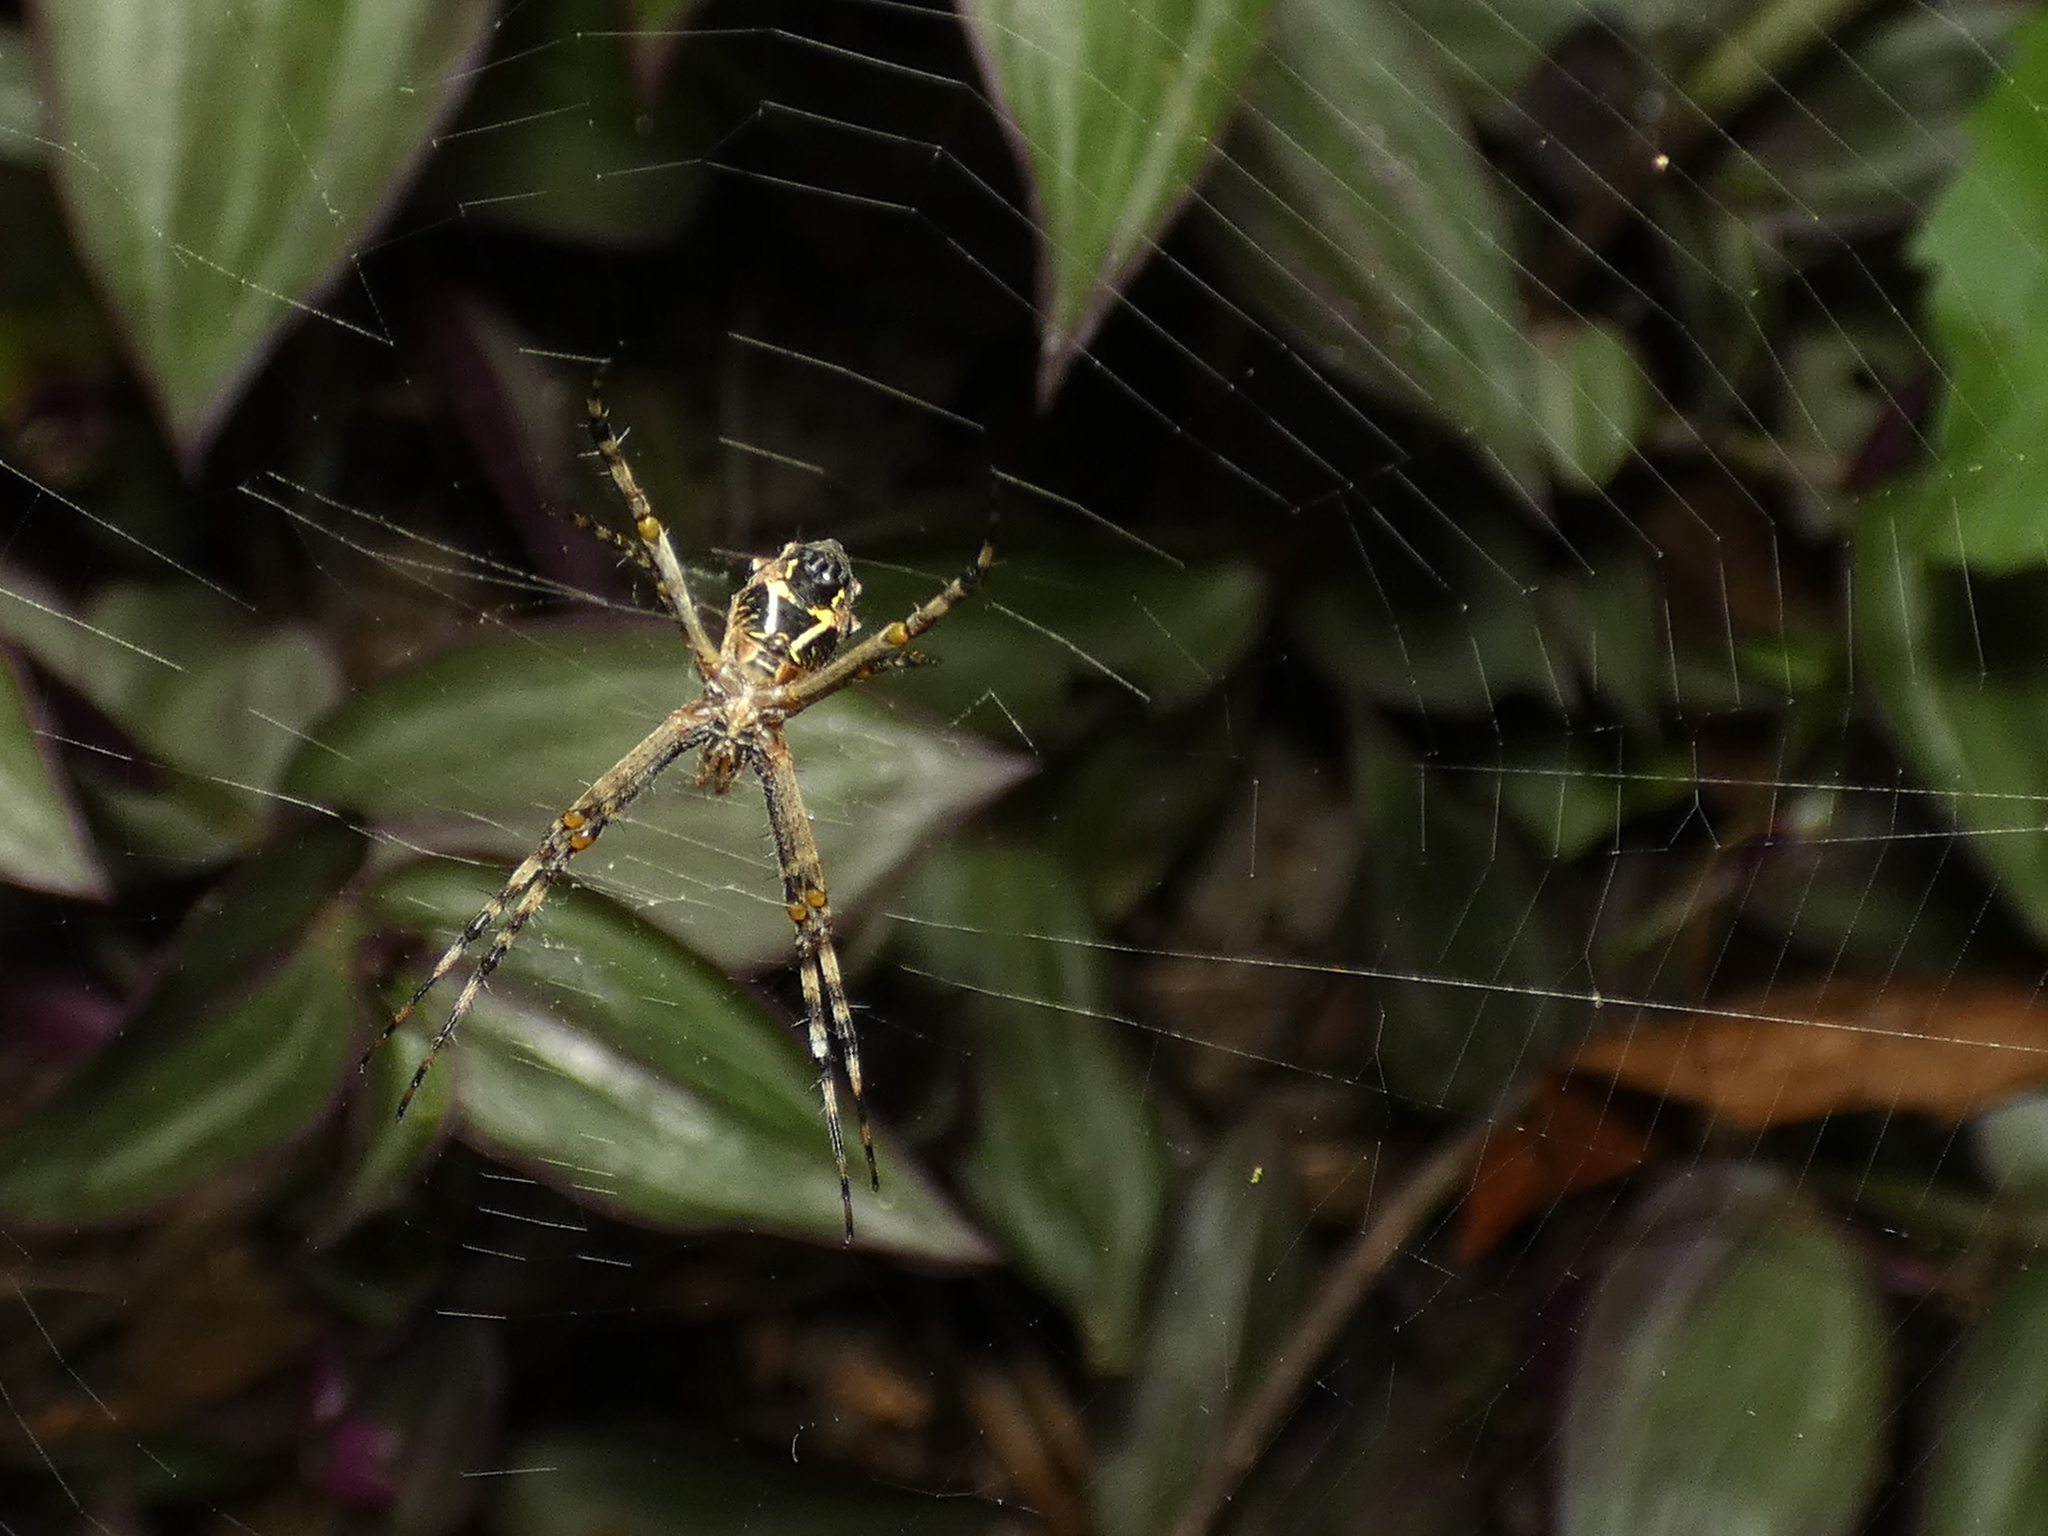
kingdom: Animalia
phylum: Arthropoda
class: Arachnida
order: Araneae
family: Araneidae
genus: Argiope
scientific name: Argiope argentata
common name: Orb weavers
